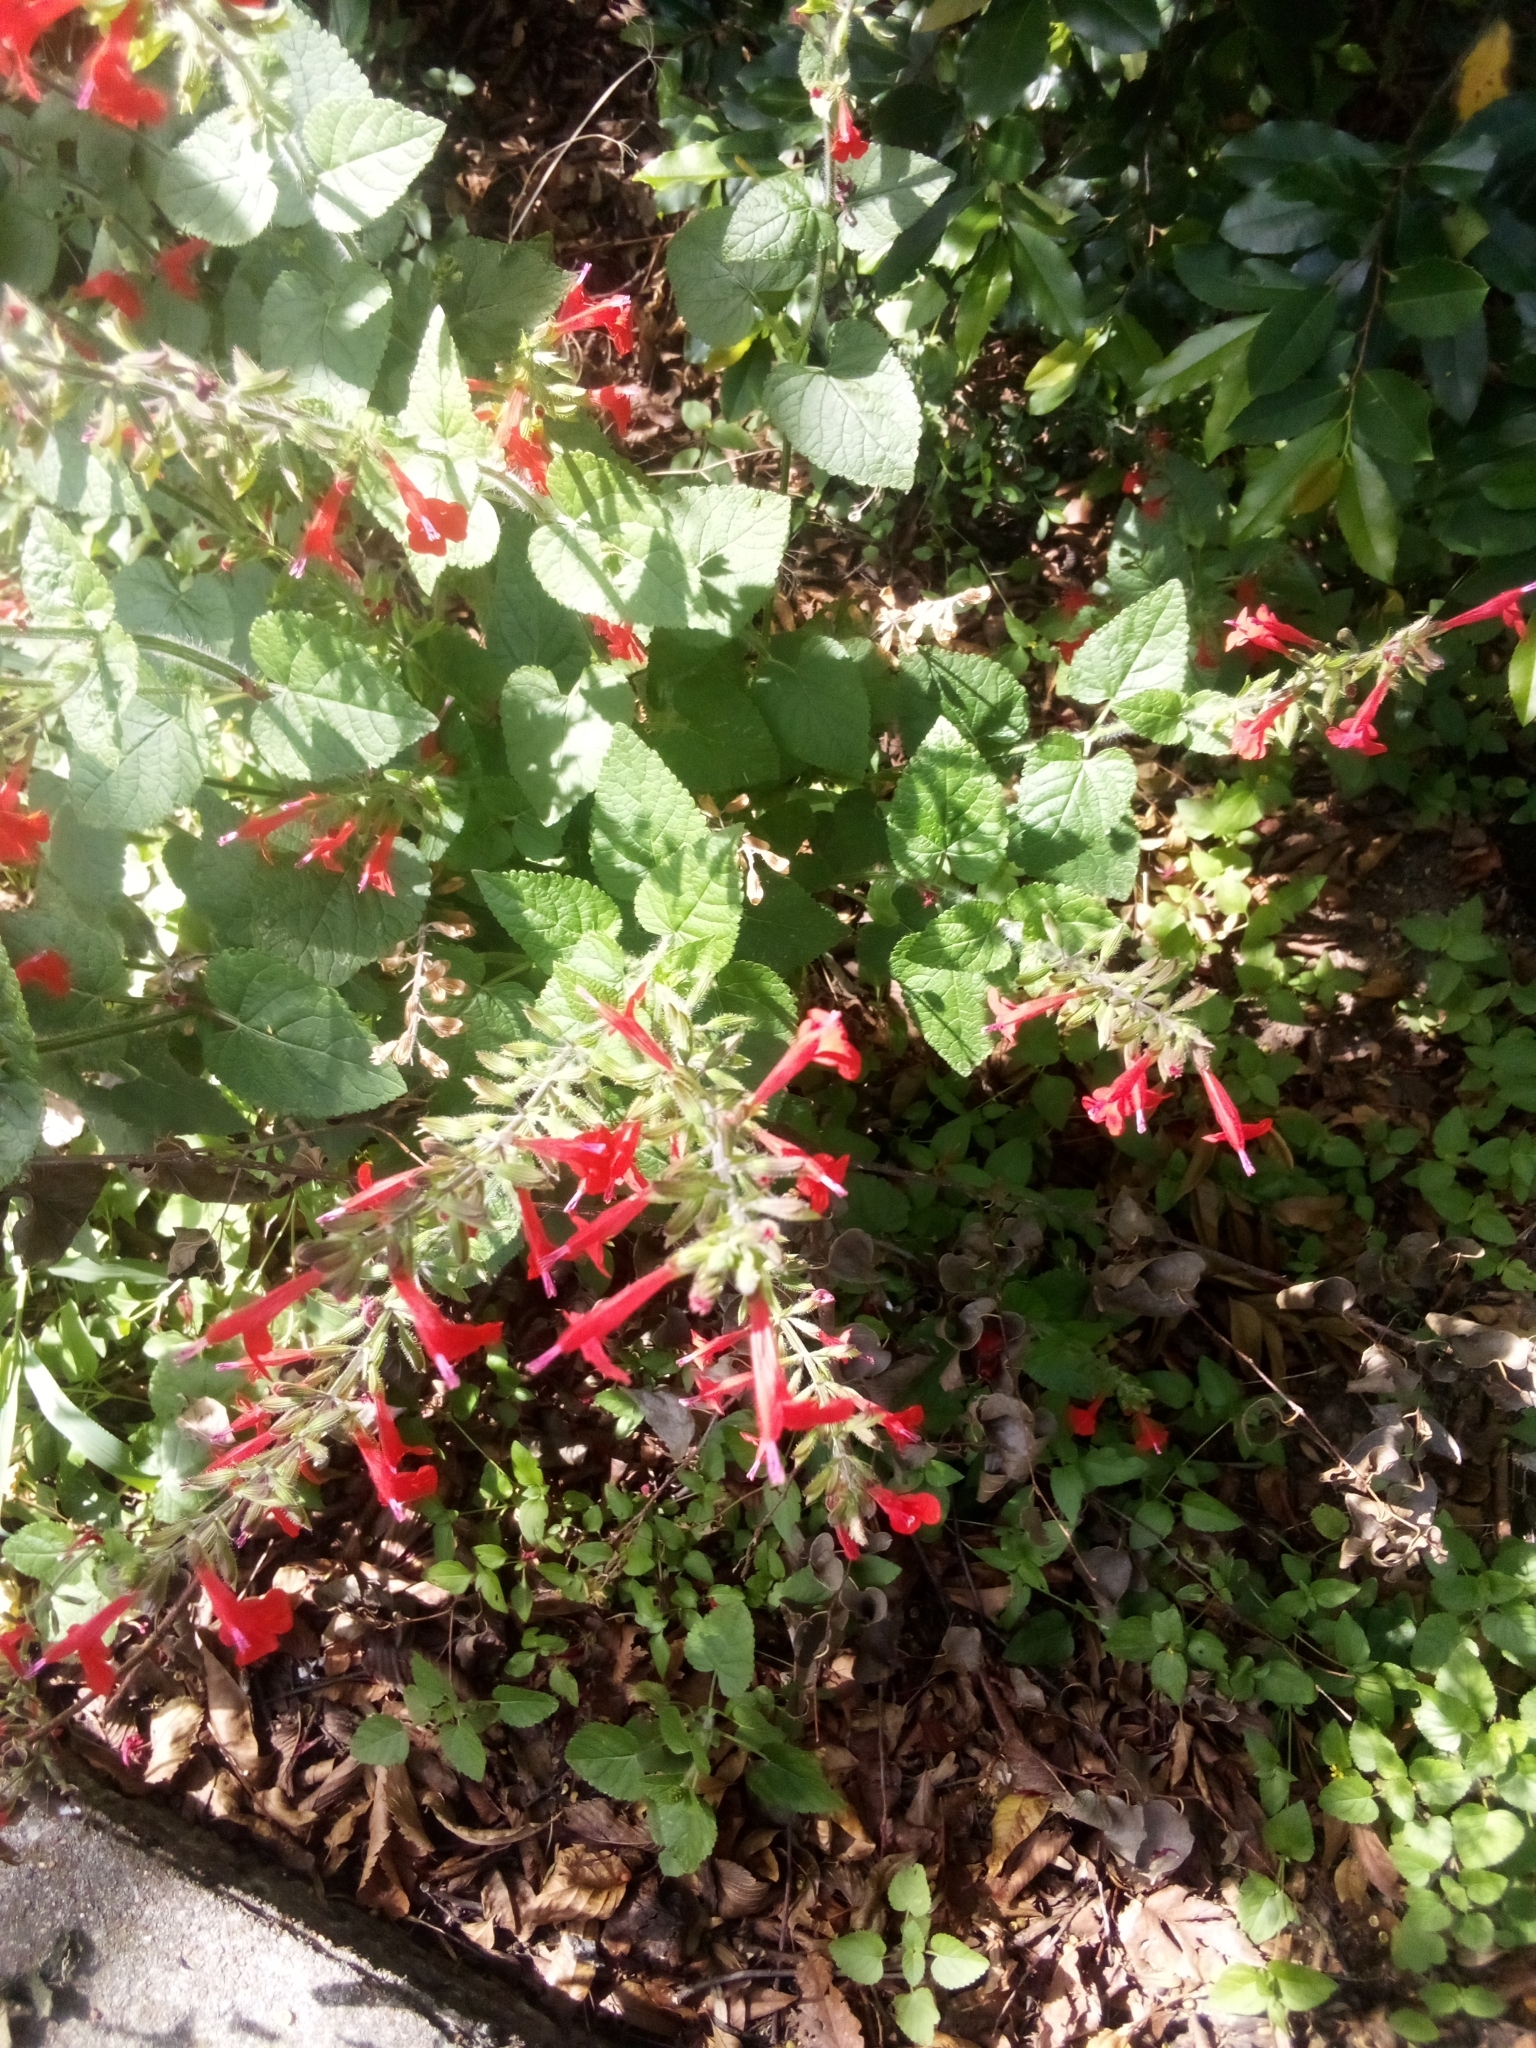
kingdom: Plantae
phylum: Tracheophyta
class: Magnoliopsida
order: Lamiales
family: Lamiaceae
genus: Salvia
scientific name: Salvia coccinea
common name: Blood sage
